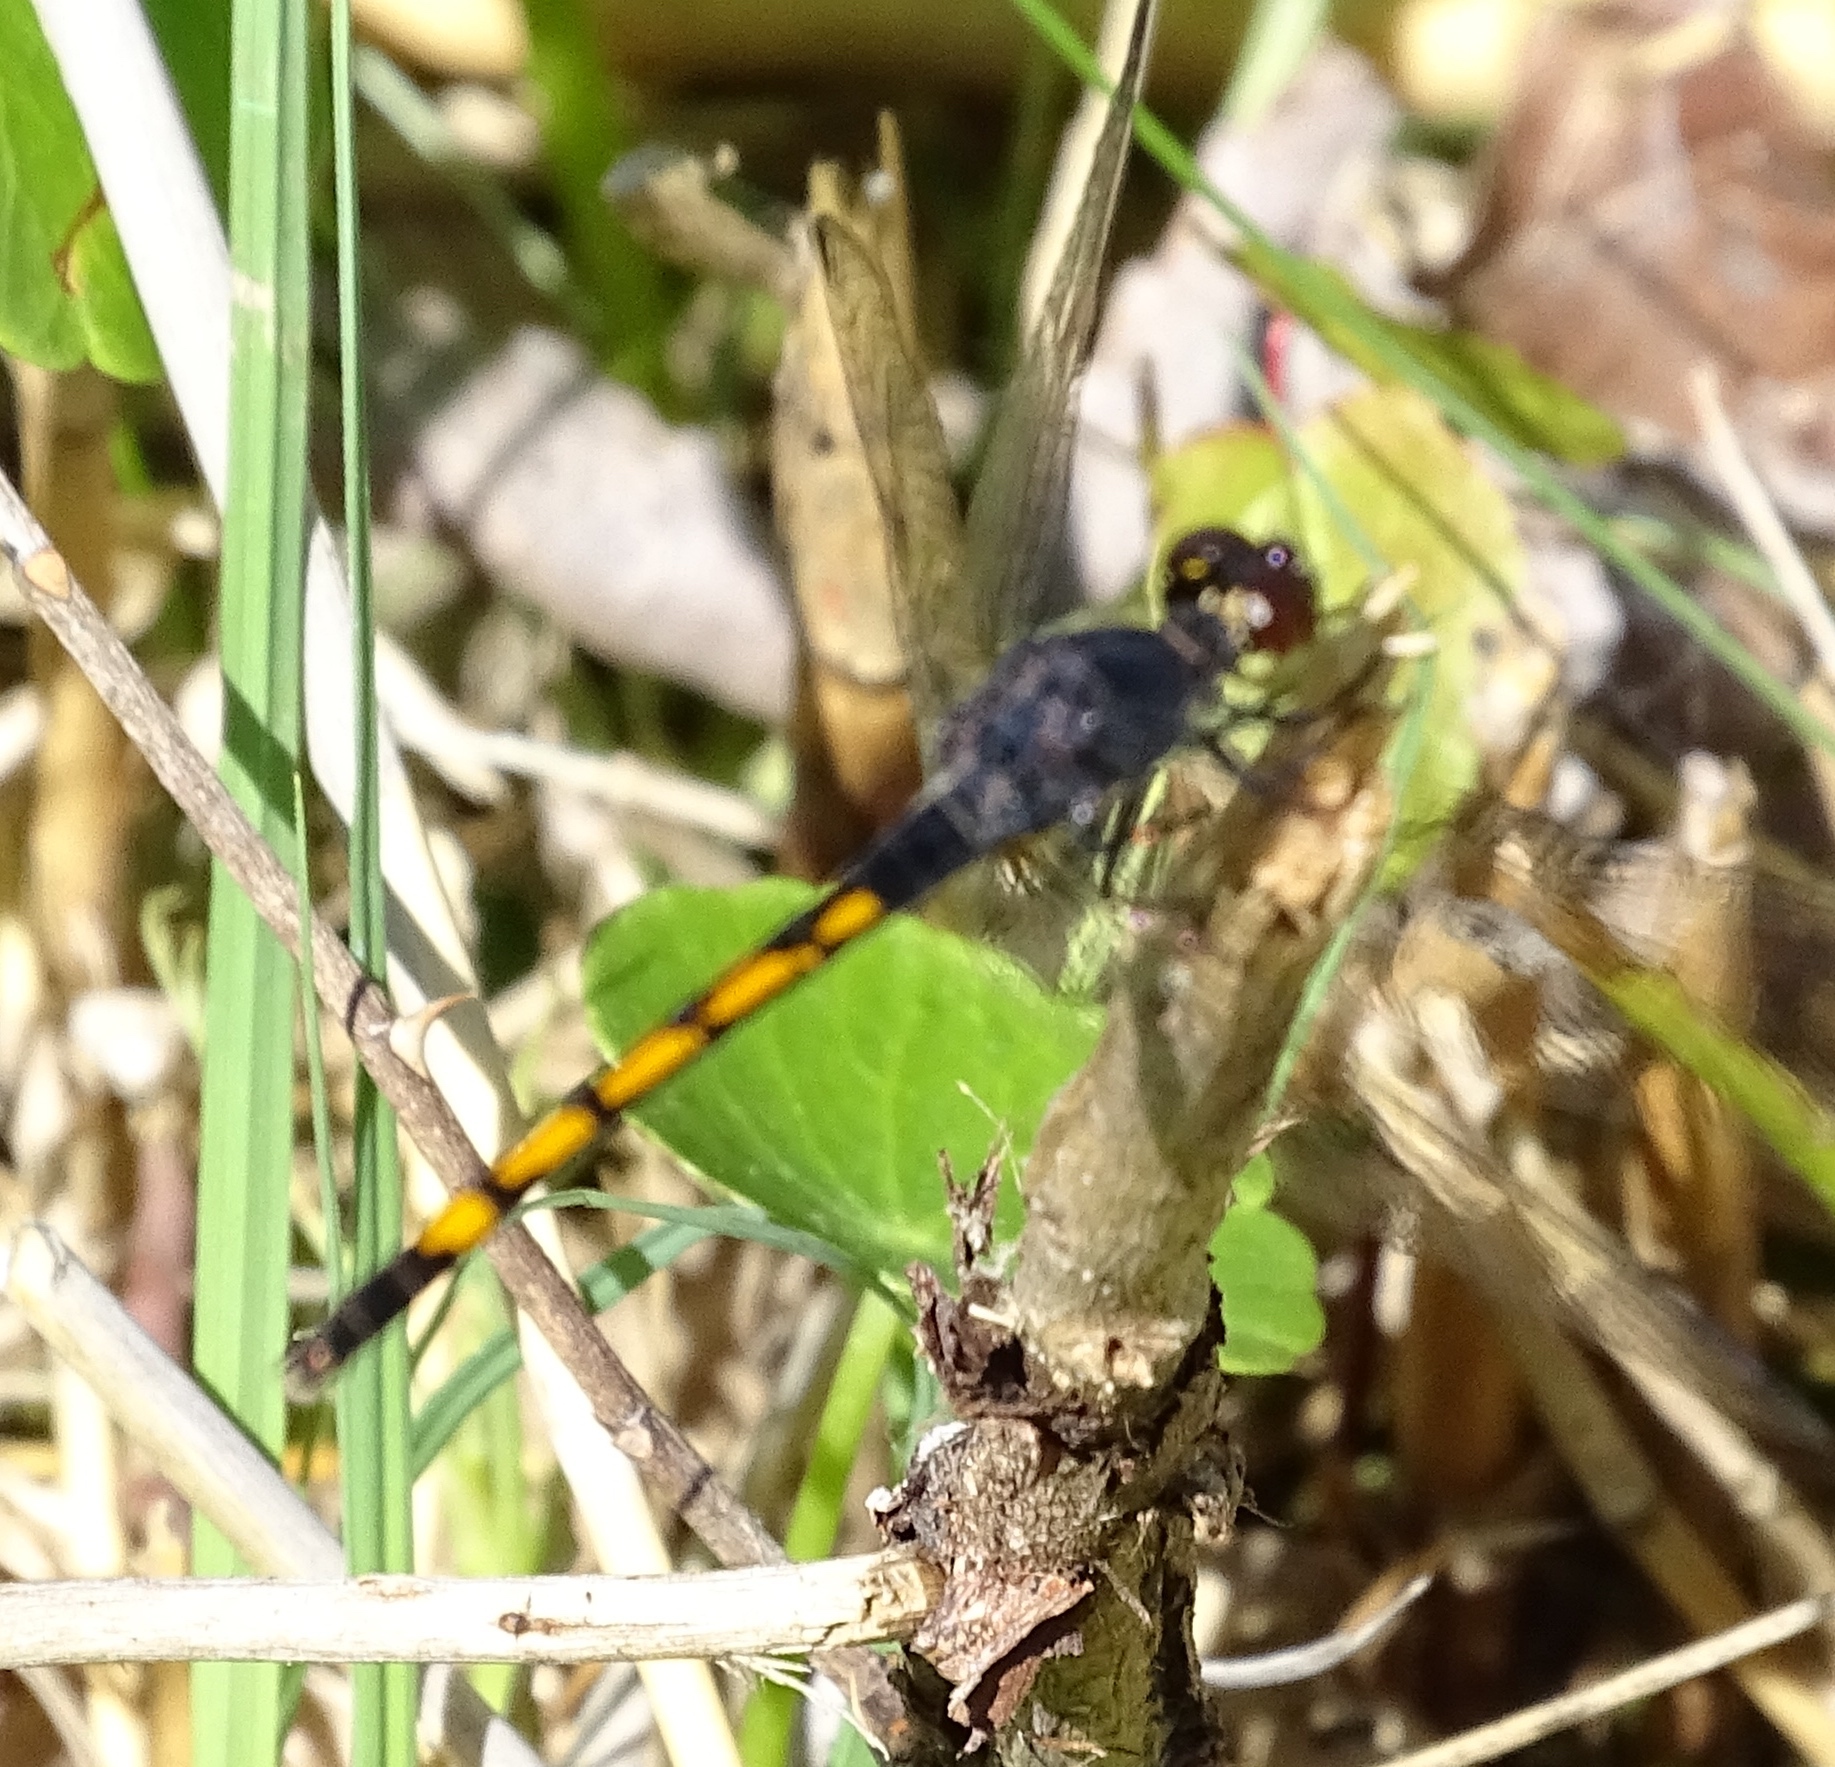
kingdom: Animalia
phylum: Arthropoda
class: Insecta
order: Odonata
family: Libellulidae
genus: Erythrodiplax
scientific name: Erythrodiplax berenice
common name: Seaside dragonlet
